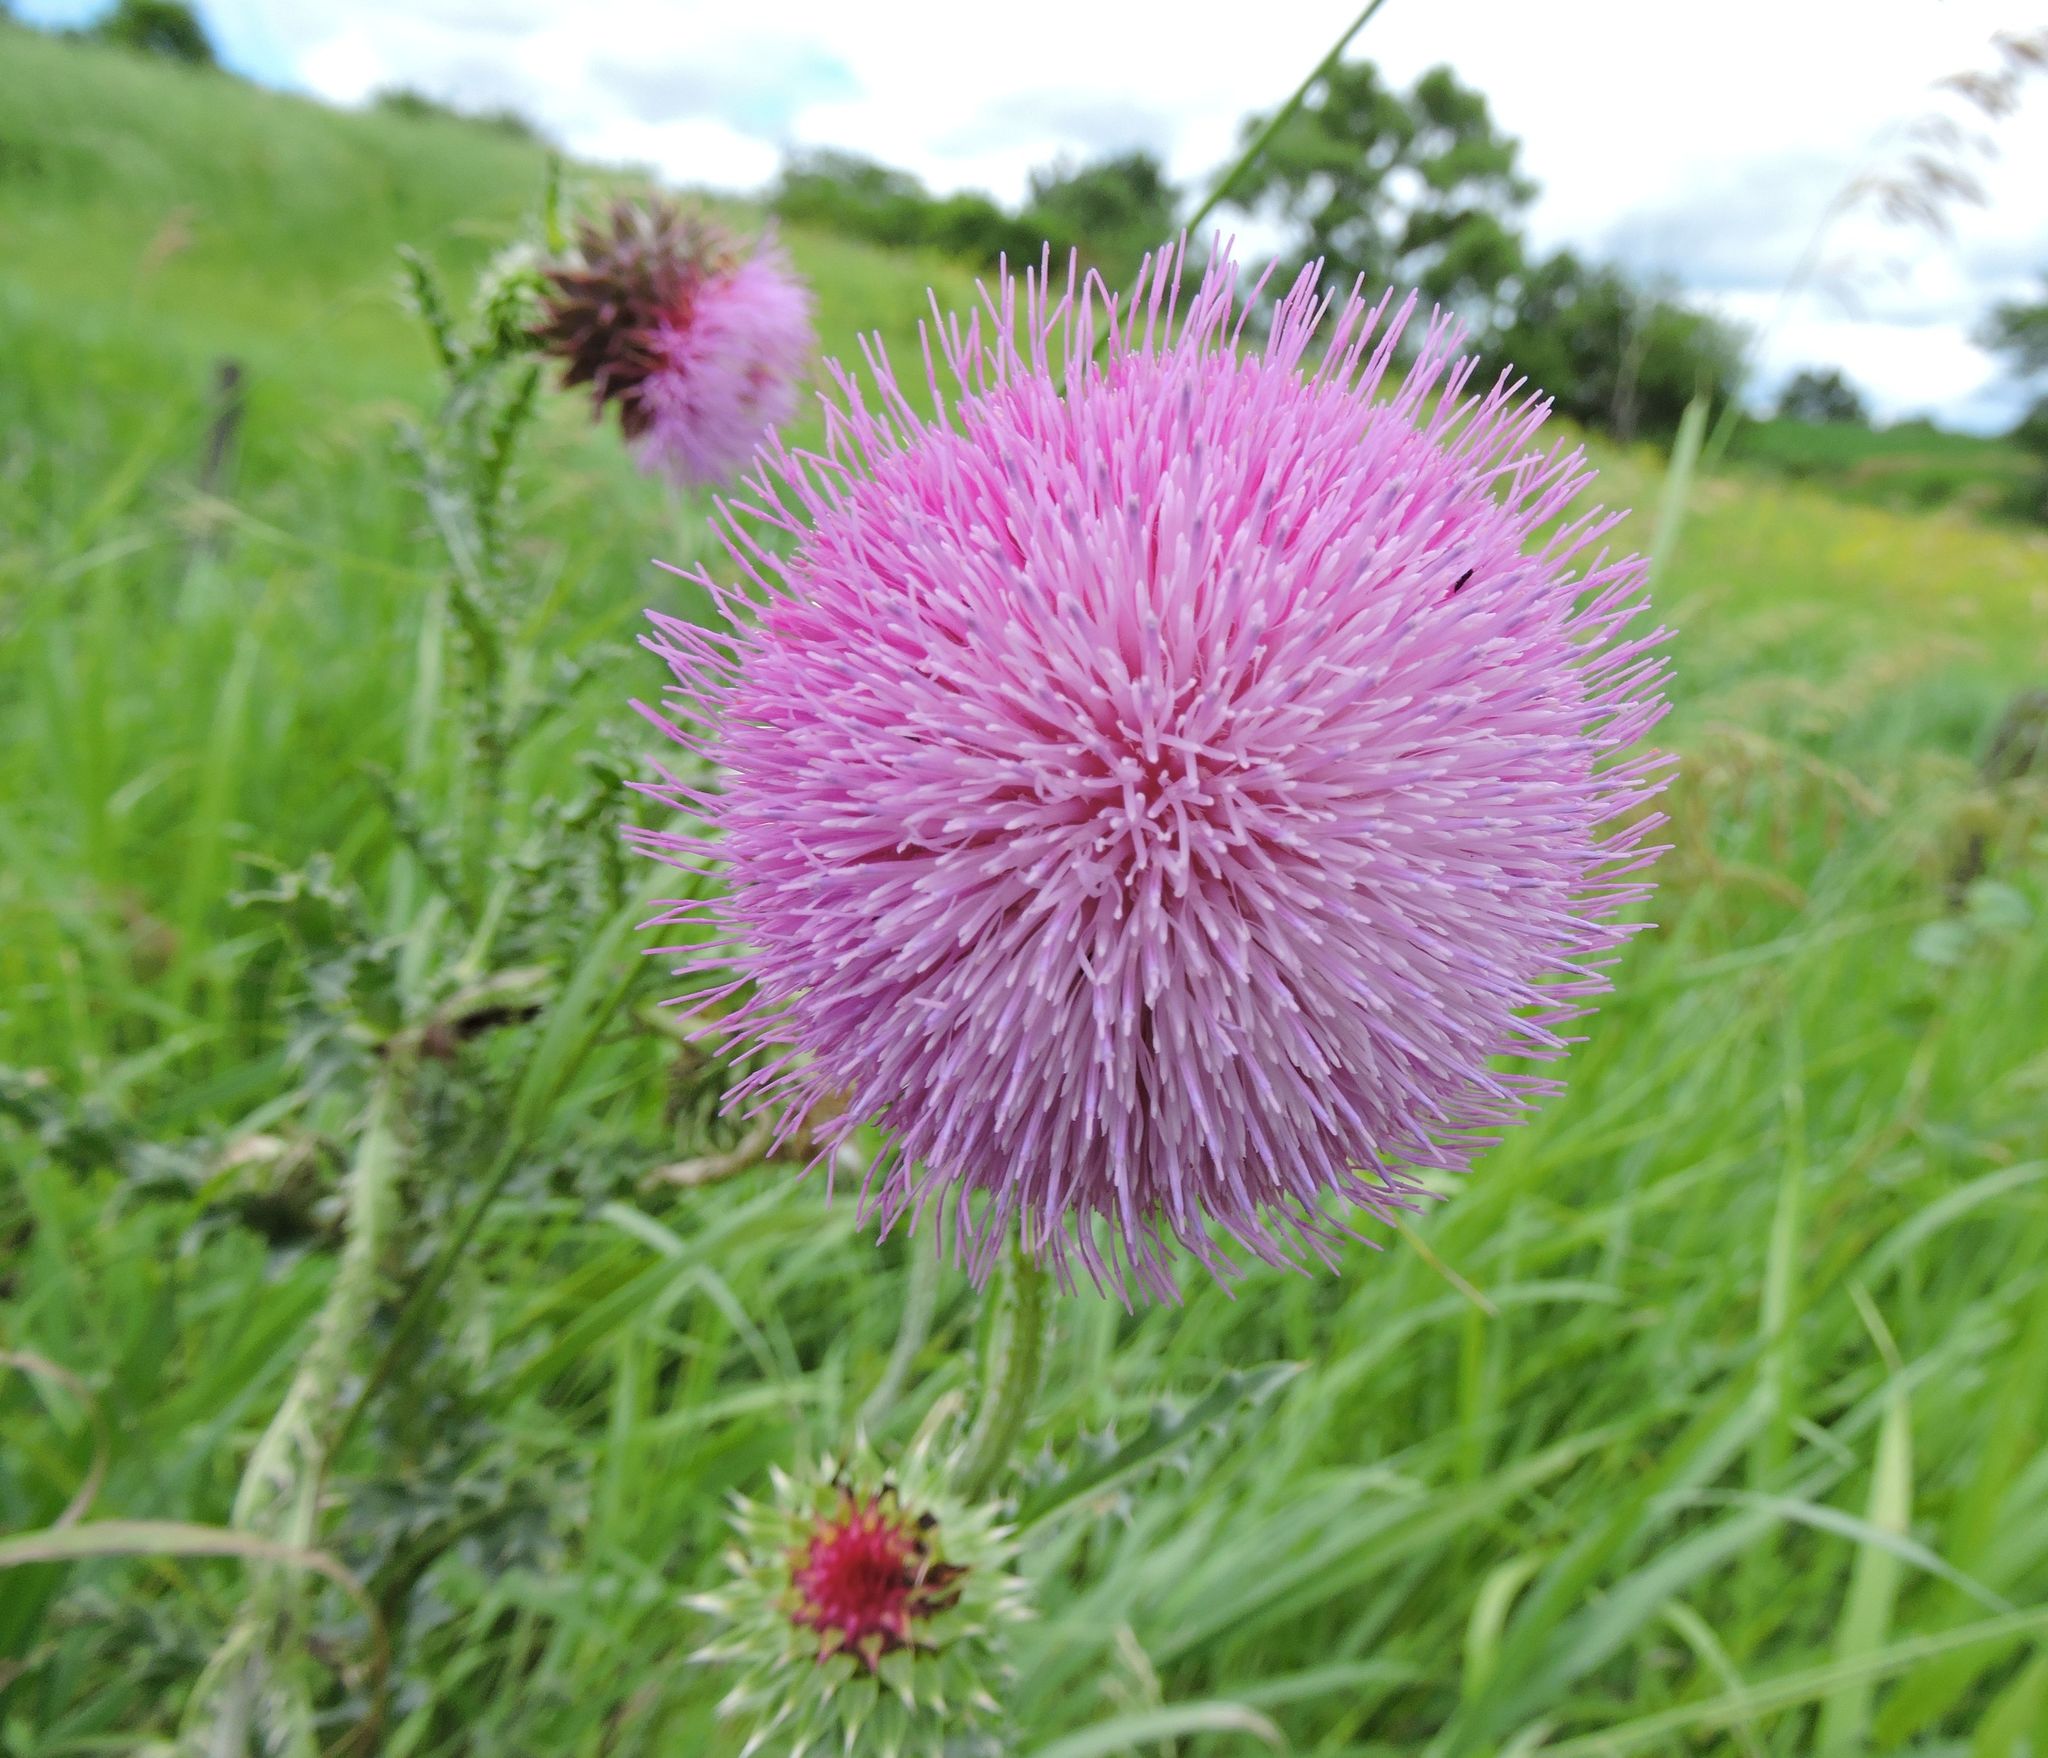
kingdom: Plantae
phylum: Tracheophyta
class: Magnoliopsida
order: Asterales
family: Asteraceae
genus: Carduus
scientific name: Carduus nutans
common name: Musk thistle
